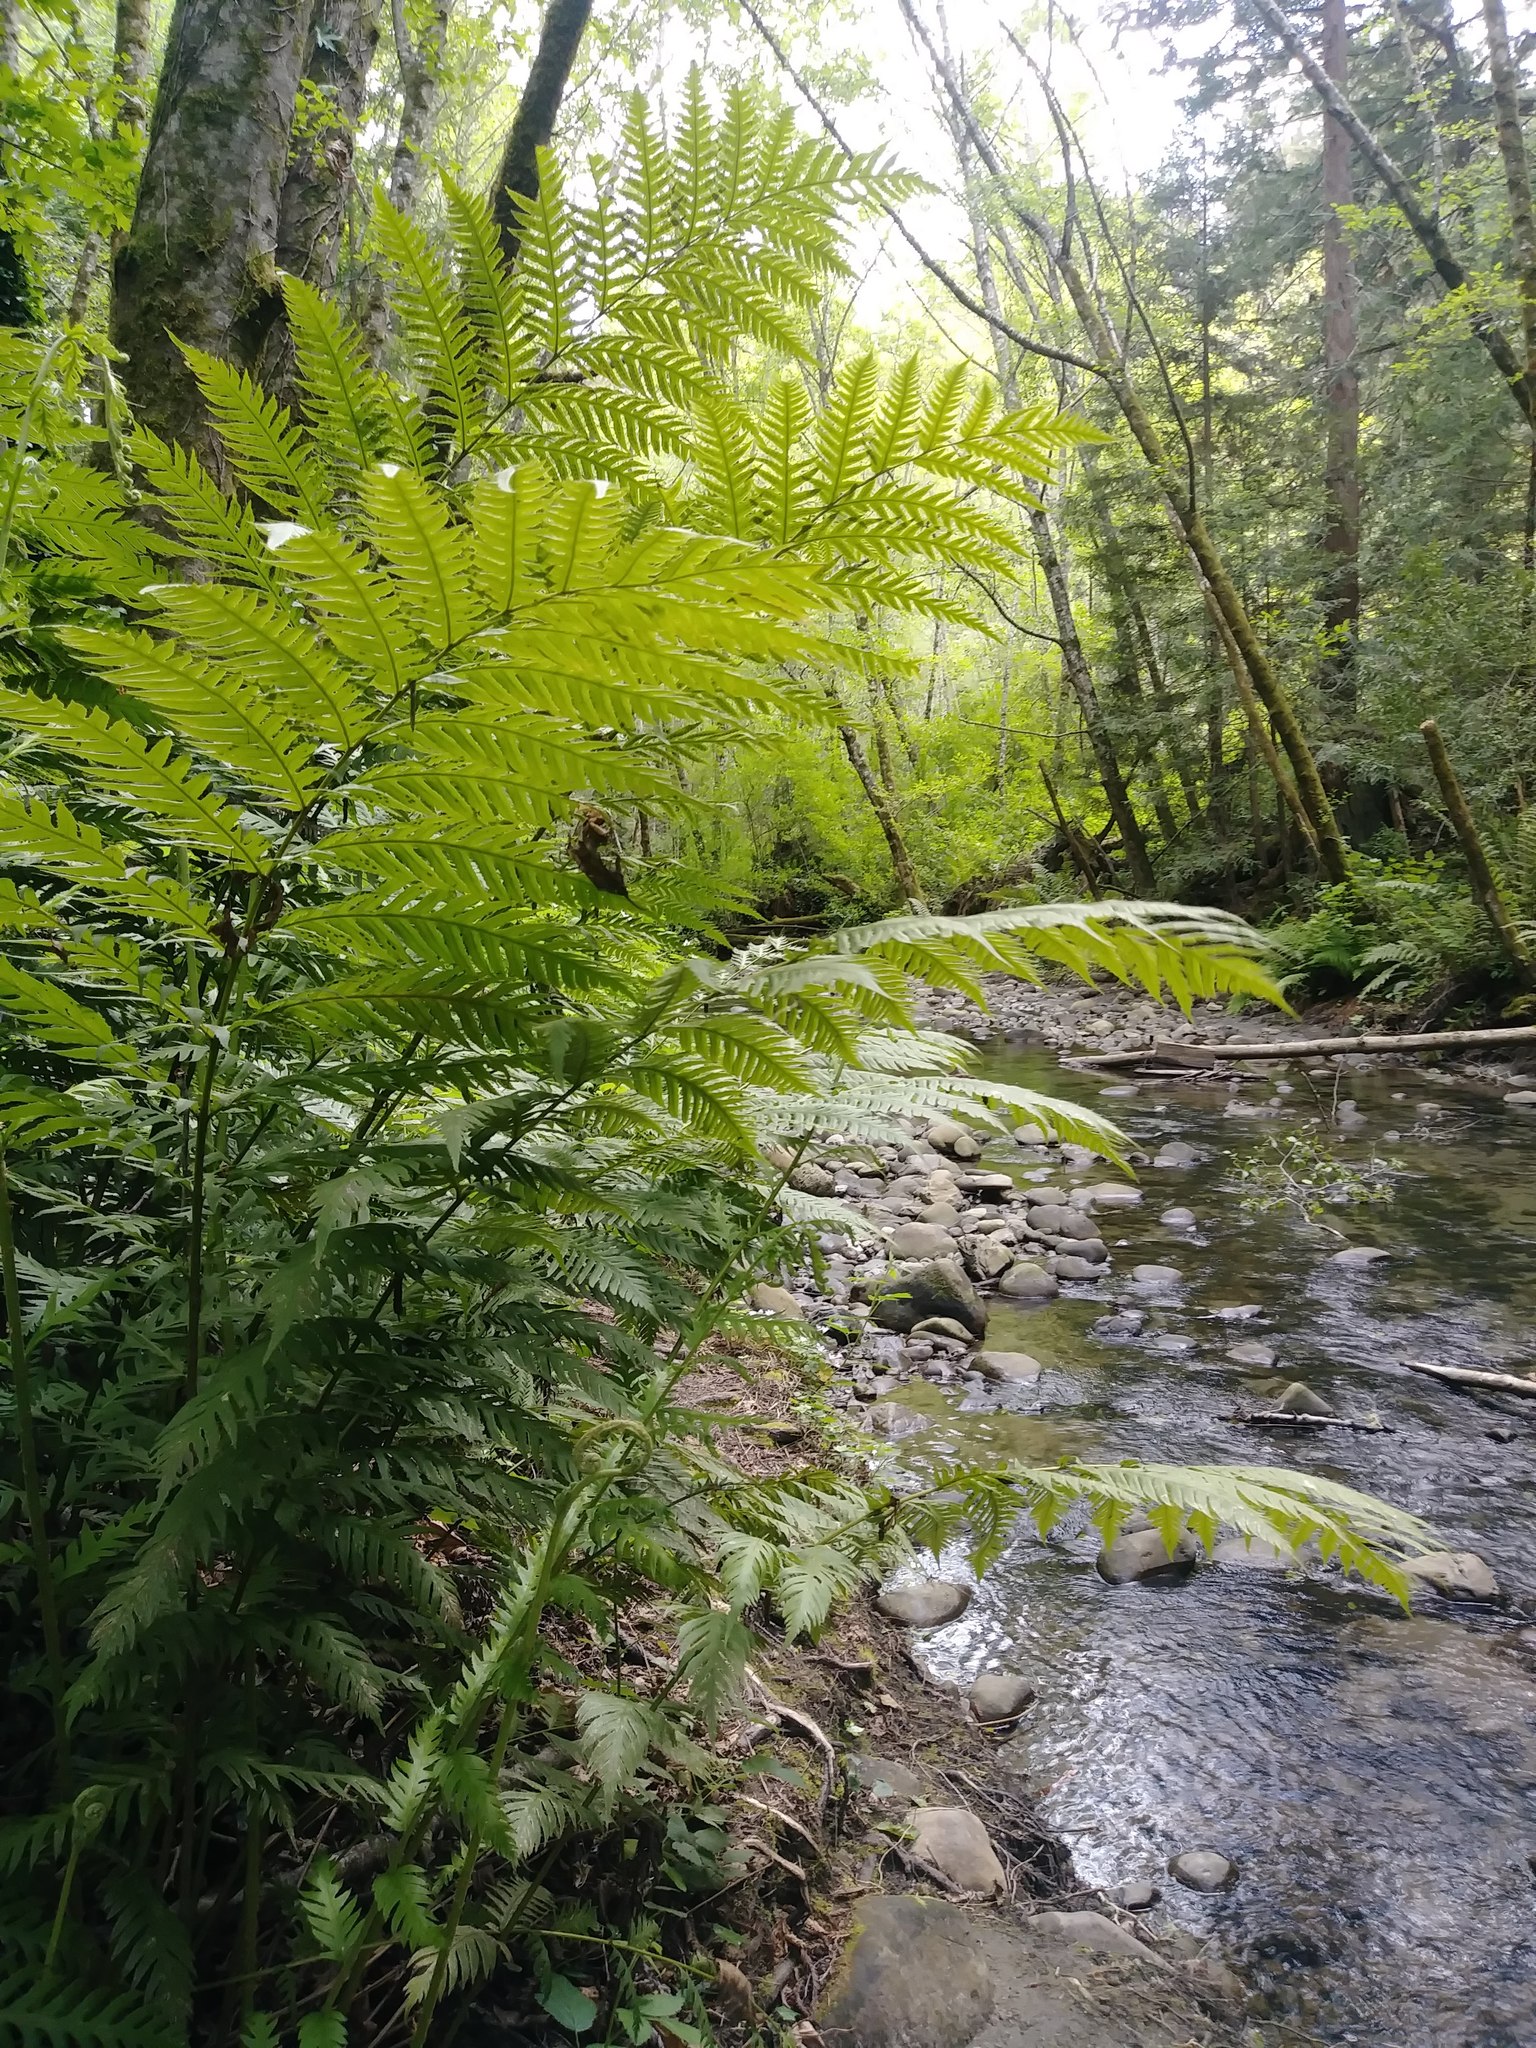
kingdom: Plantae
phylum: Tracheophyta
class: Polypodiopsida
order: Polypodiales
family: Blechnaceae
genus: Woodwardia
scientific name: Woodwardia fimbriata
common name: Giant chain fern
